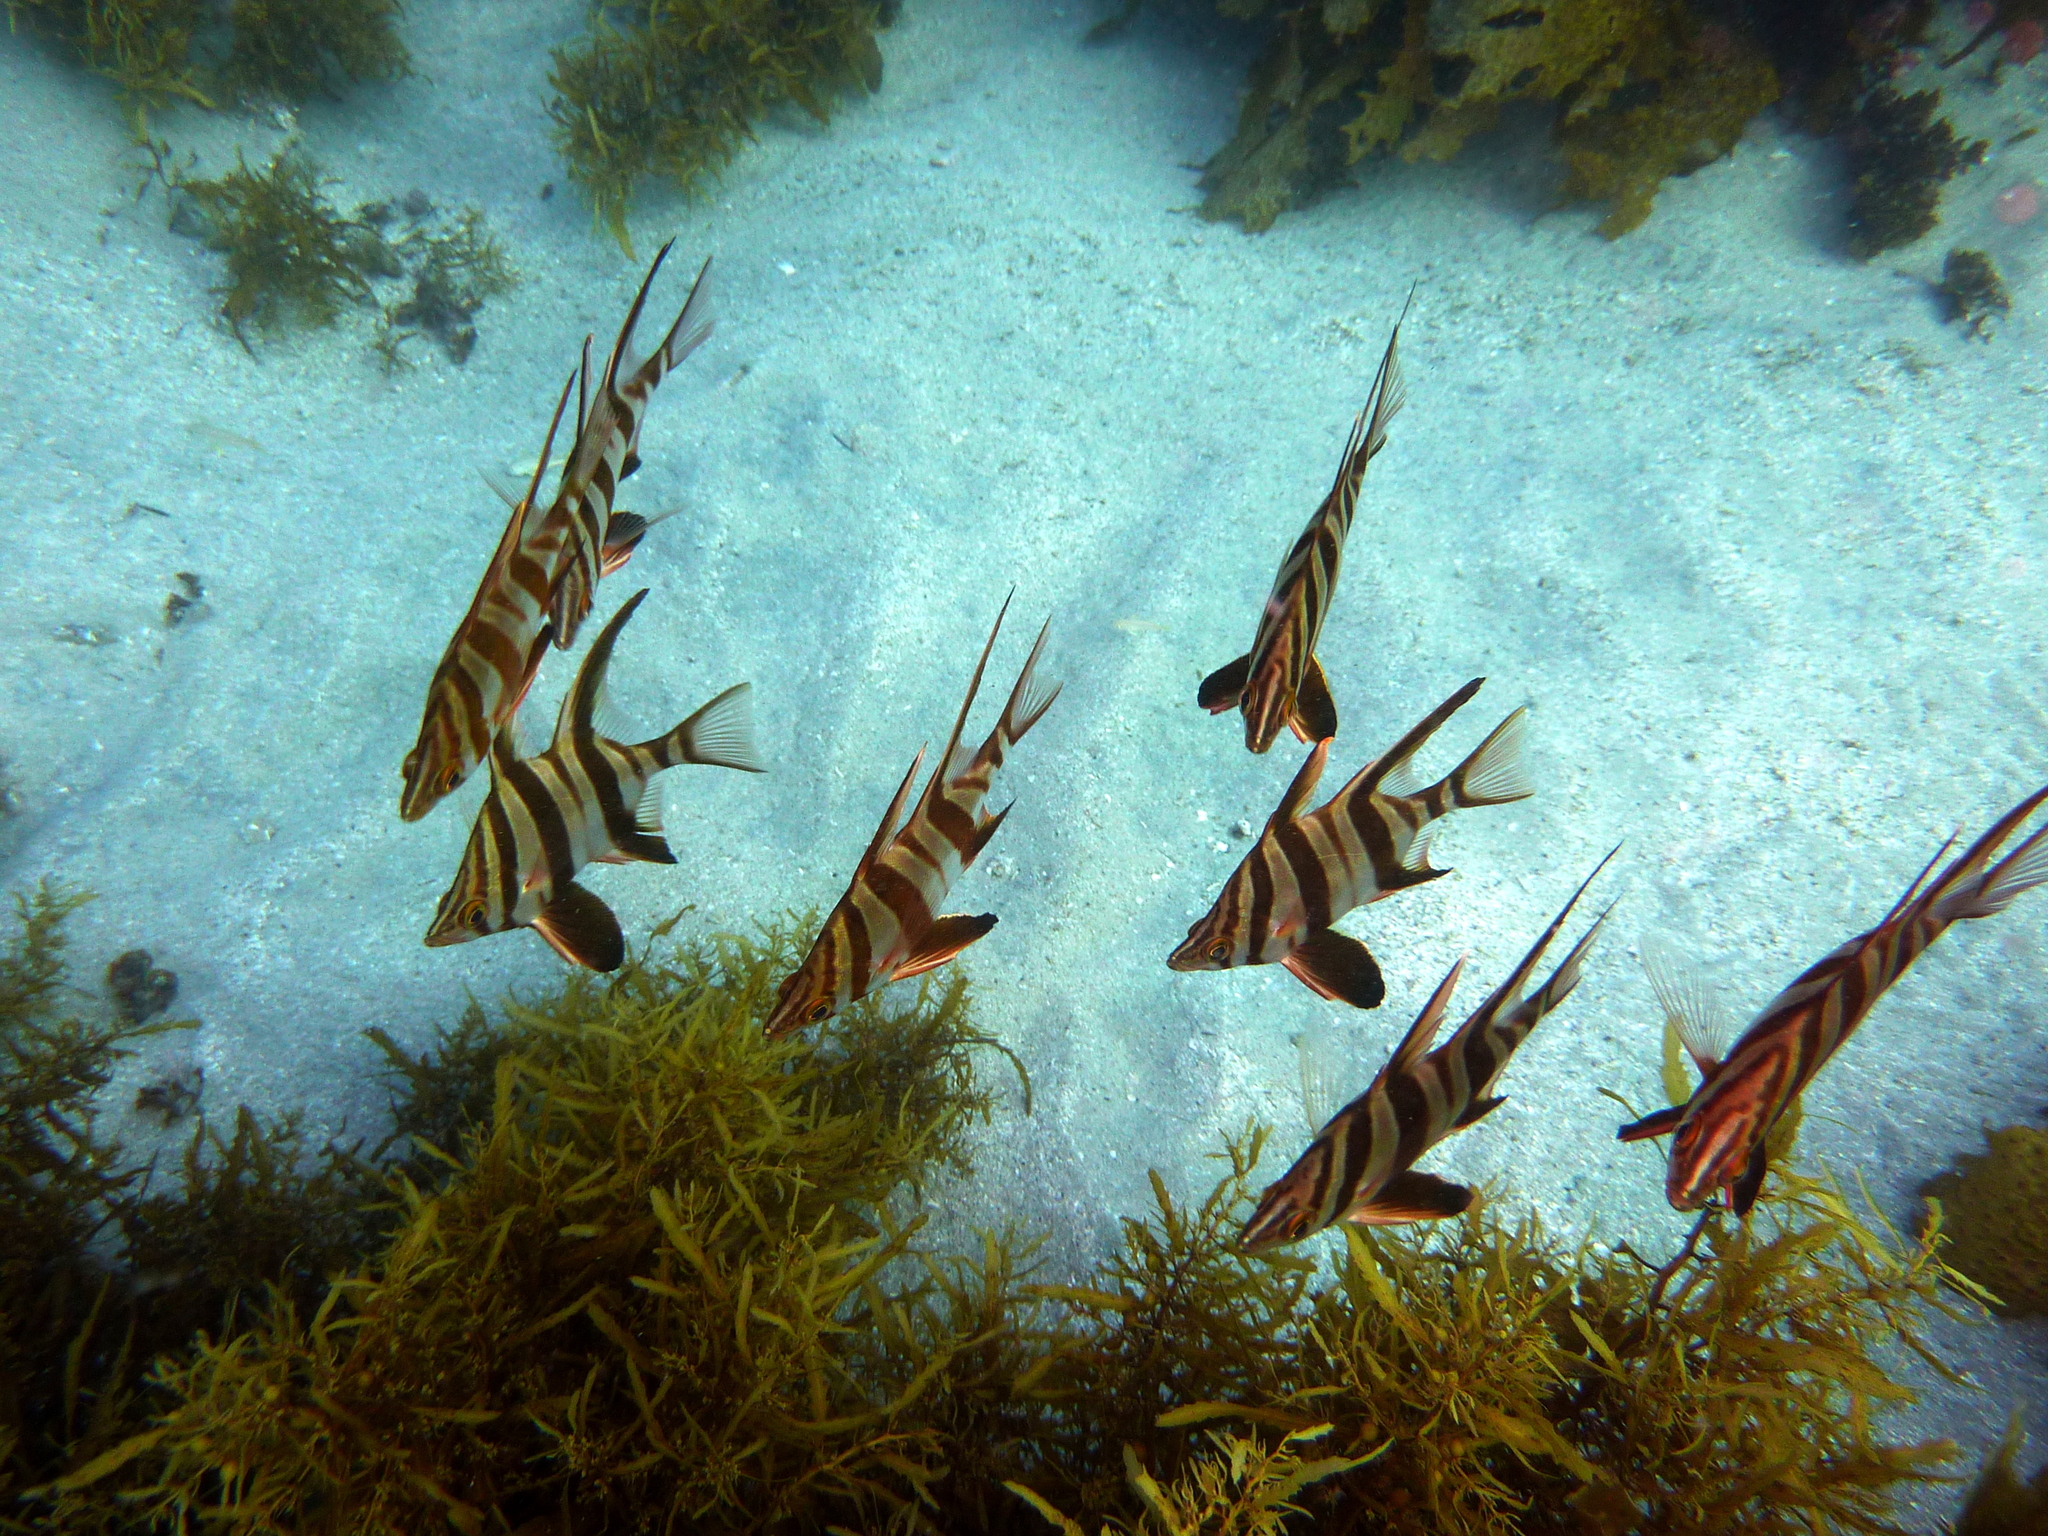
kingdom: Animalia
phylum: Chordata
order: Perciformes
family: Enoplosidae
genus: Enoplosus
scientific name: Enoplosus armatus
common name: Old wife
